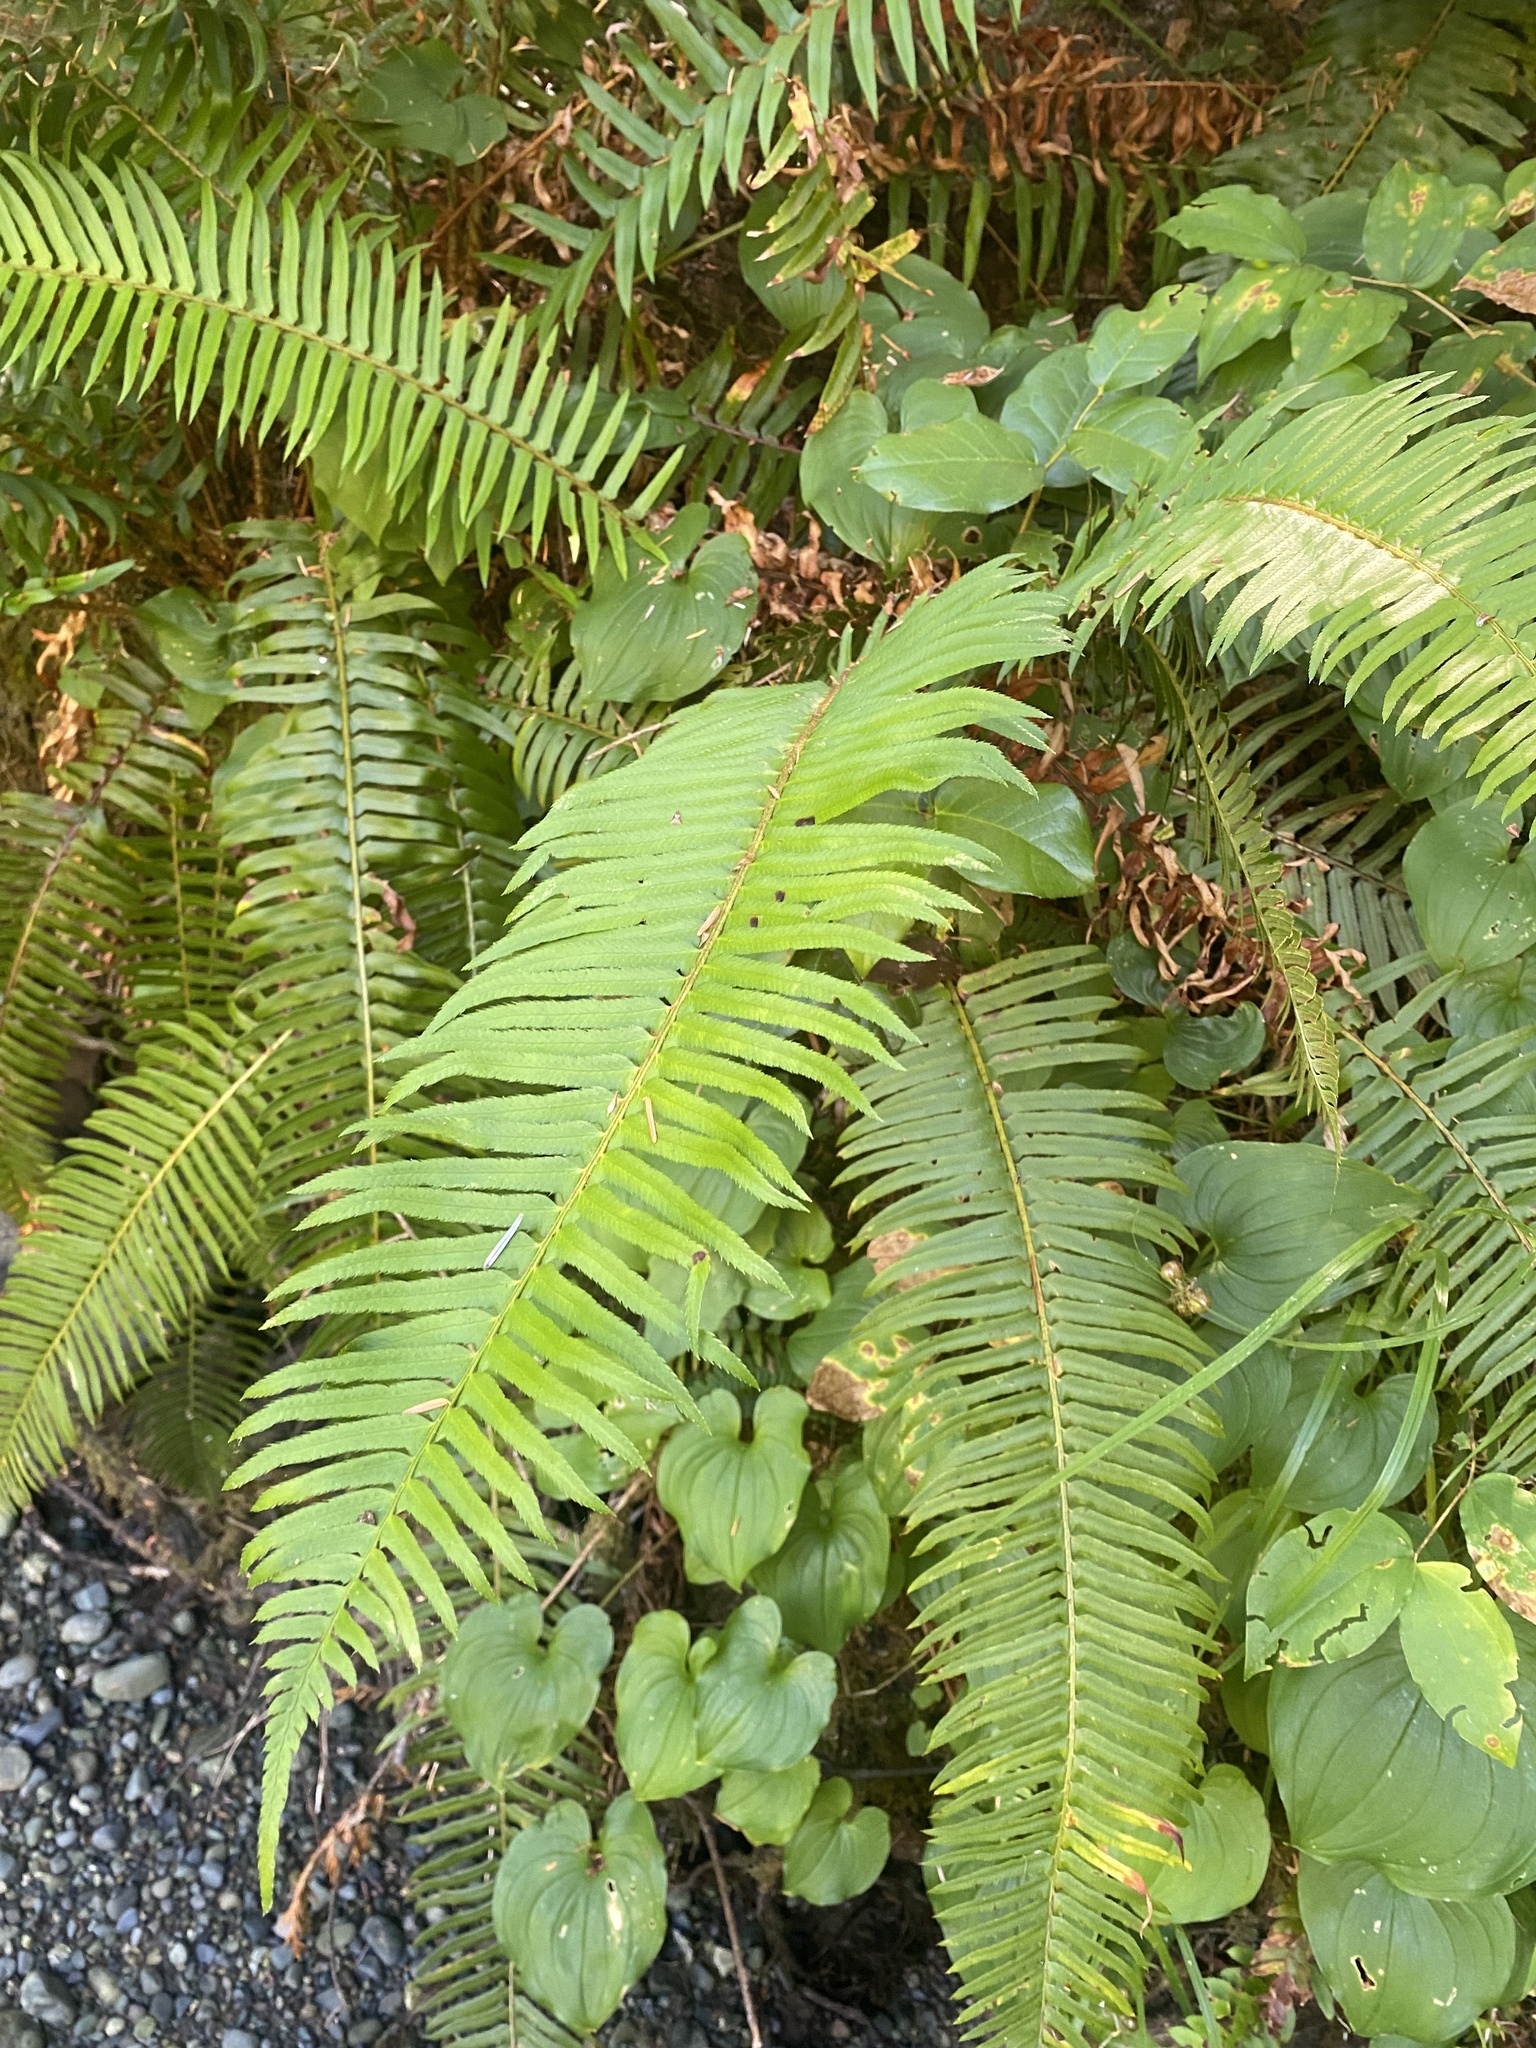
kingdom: Plantae
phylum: Tracheophyta
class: Polypodiopsida
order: Polypodiales
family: Dryopteridaceae
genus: Polystichum
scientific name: Polystichum munitum
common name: Western sword-fern
